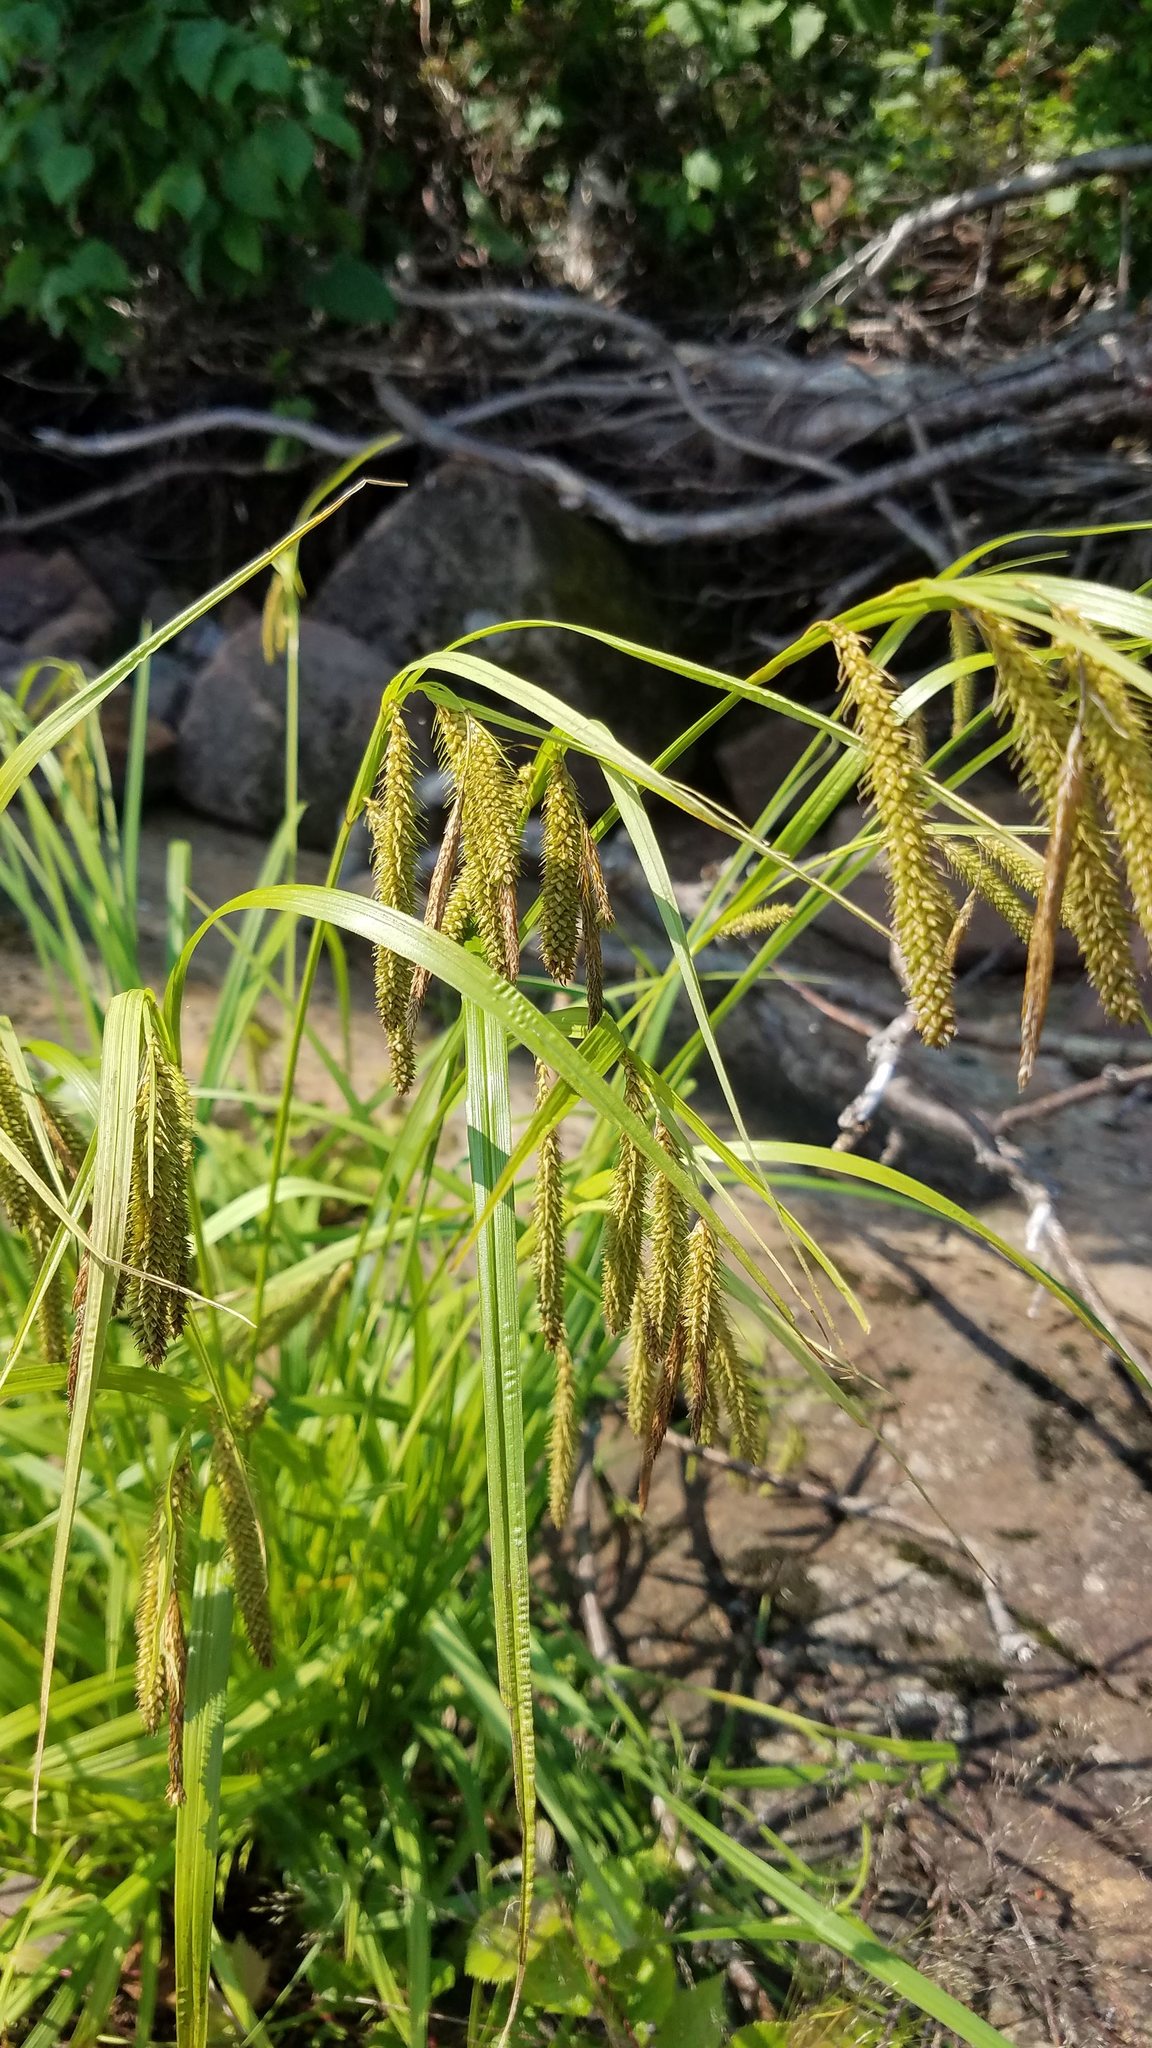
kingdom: Plantae
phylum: Tracheophyta
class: Liliopsida
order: Poales
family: Cyperaceae
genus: Carex
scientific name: Carex gynandra
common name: Nodding sedge
